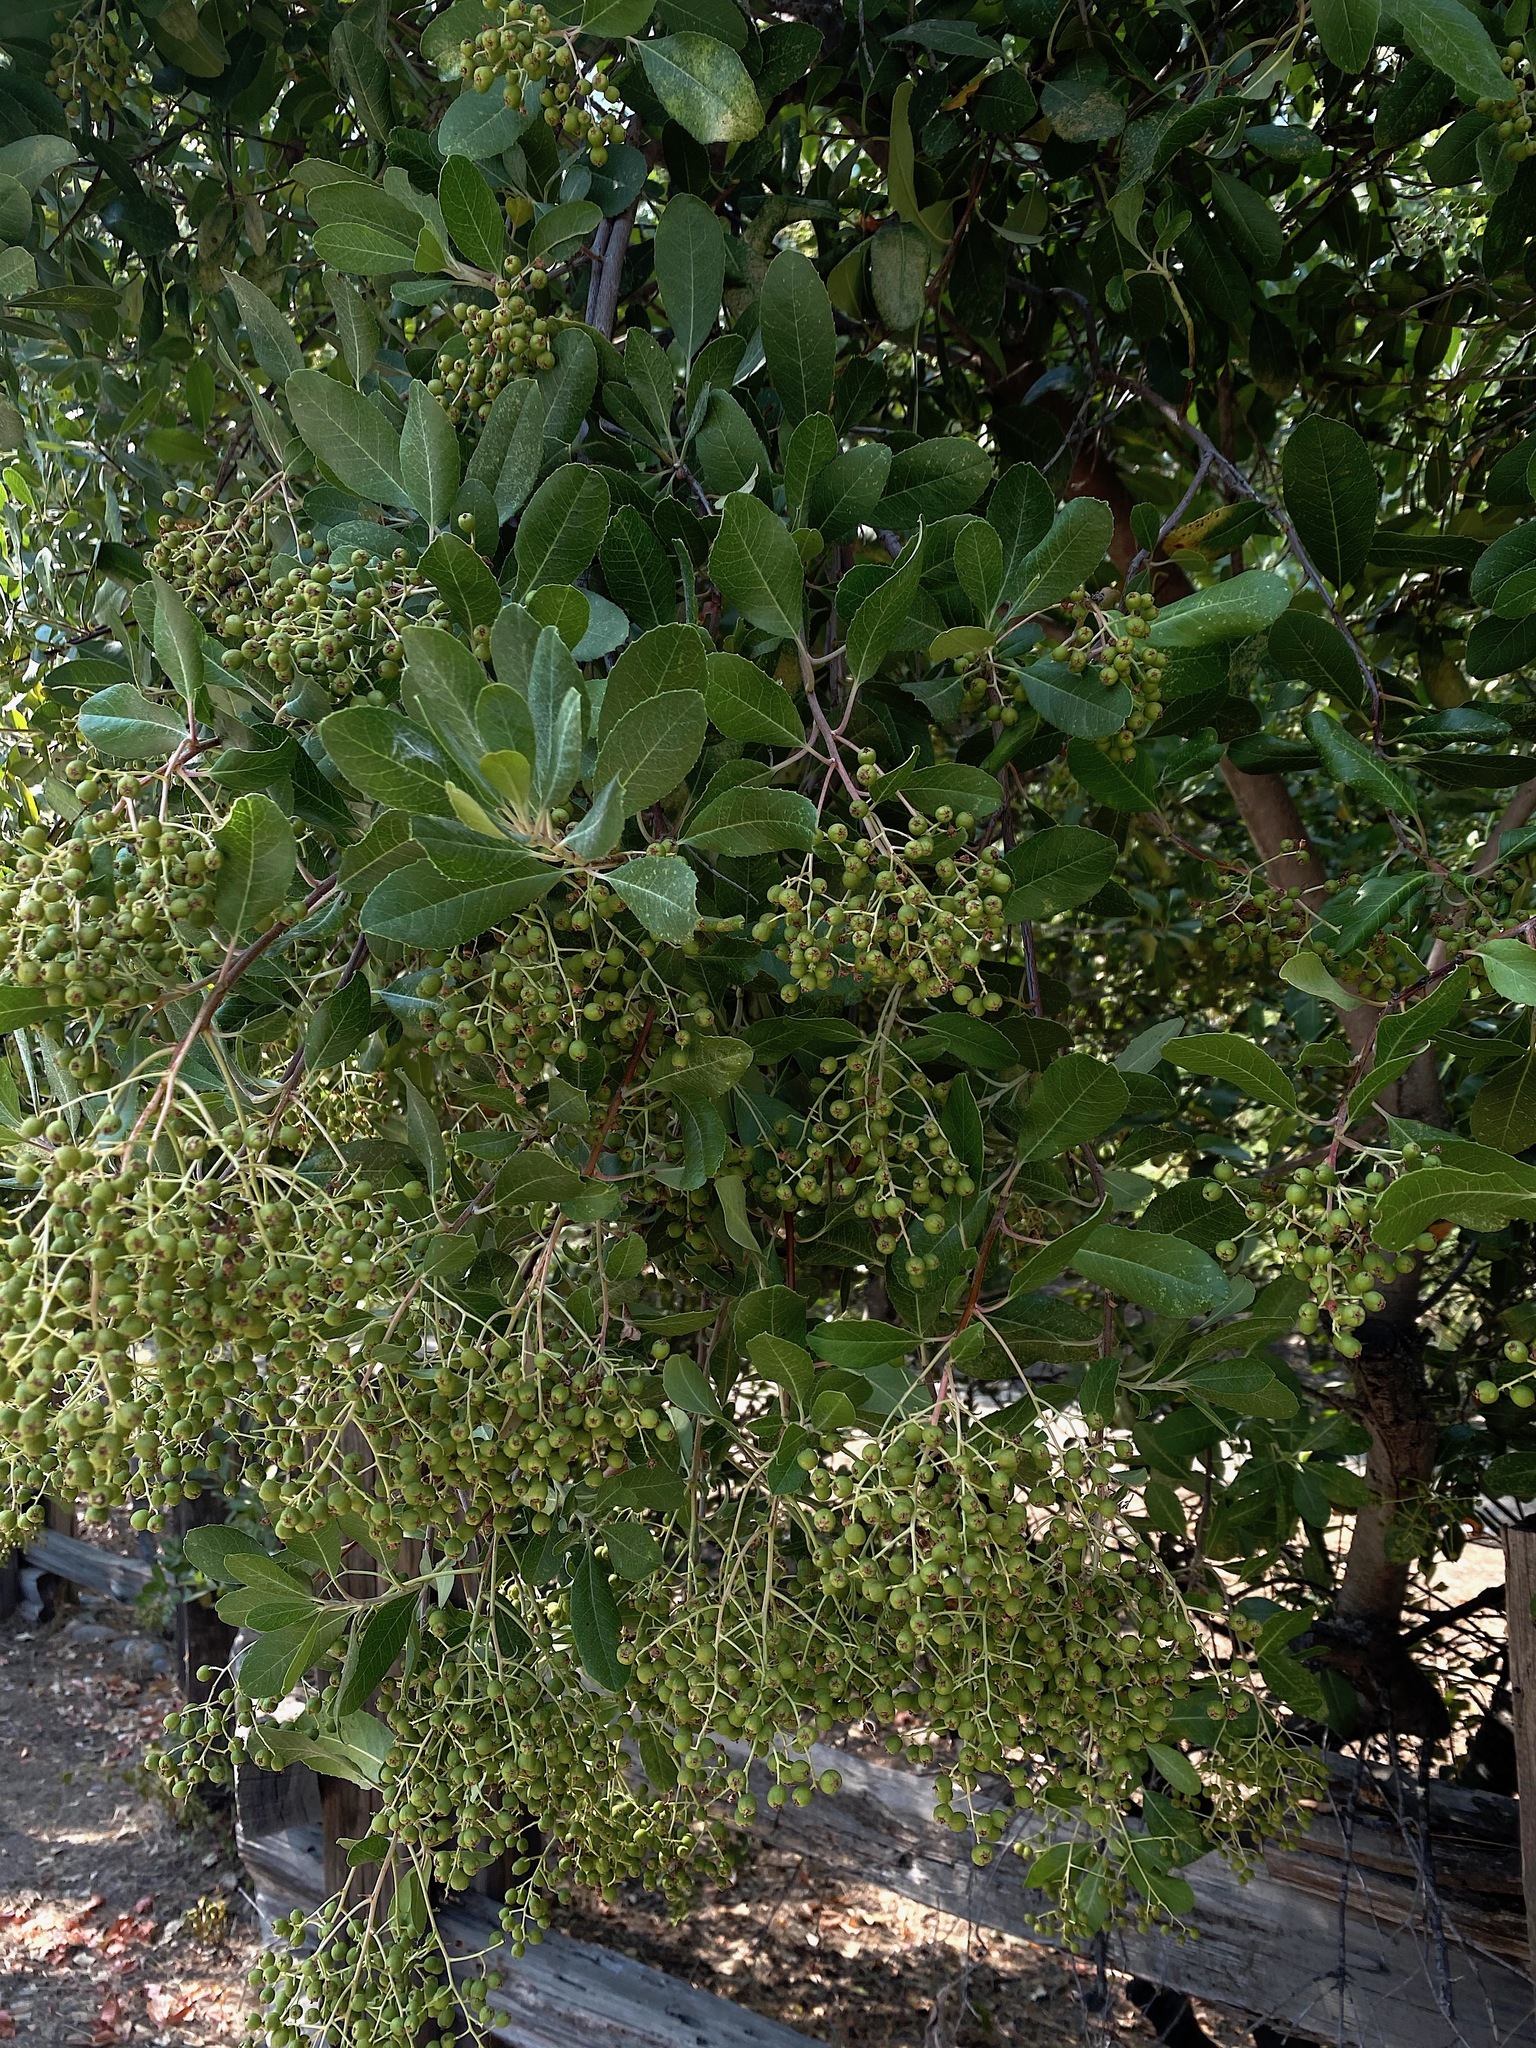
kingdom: Plantae
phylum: Tracheophyta
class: Magnoliopsida
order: Rosales
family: Rosaceae
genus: Heteromeles
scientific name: Heteromeles arbutifolia
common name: California-holly
